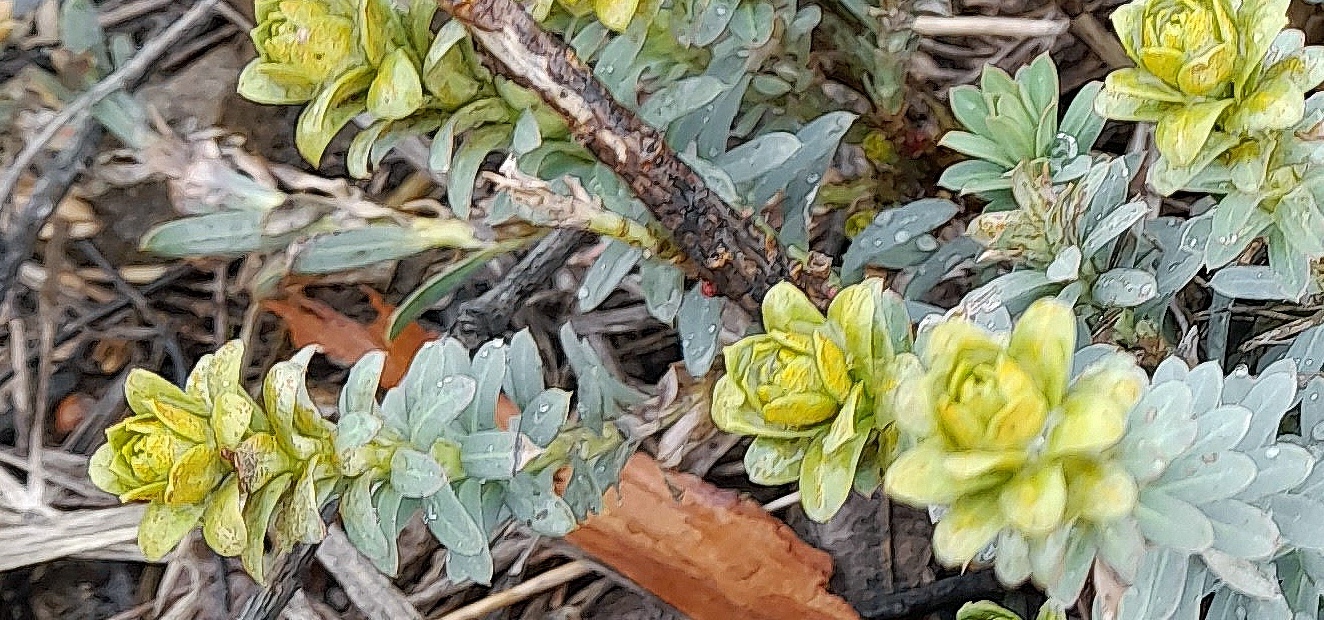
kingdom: Plantae
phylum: Tracheophyta
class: Magnoliopsida
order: Malpighiales
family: Euphorbiaceae
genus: Euphorbia
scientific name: Euphorbia seguieriana
